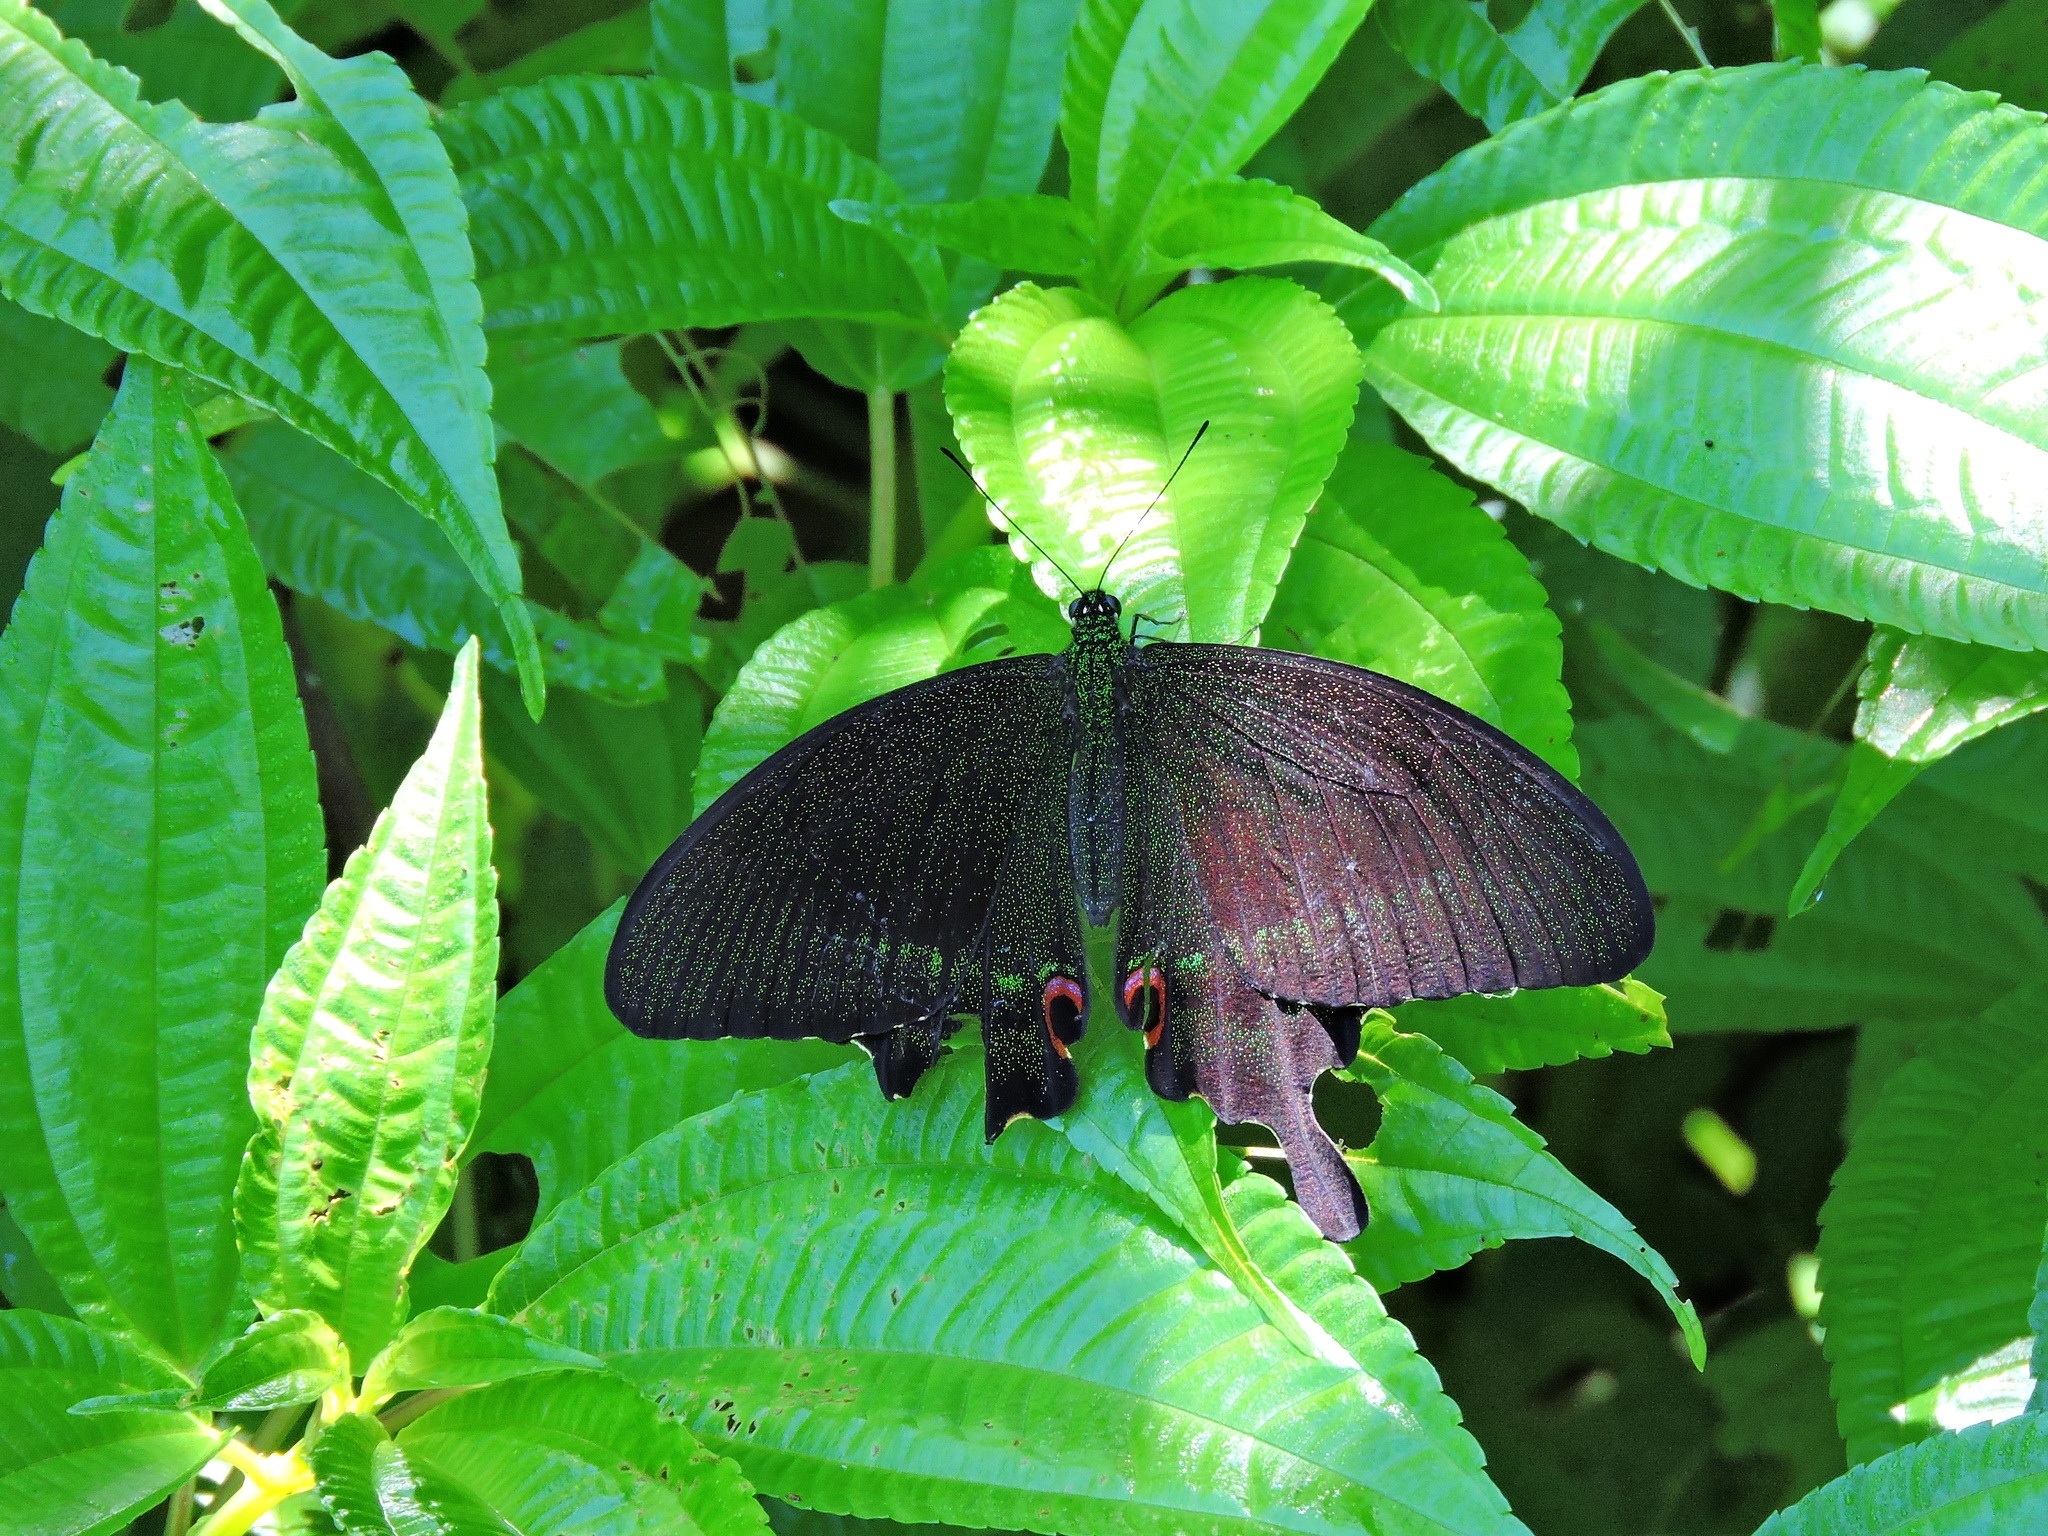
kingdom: Animalia
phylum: Arthropoda
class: Insecta
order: Lepidoptera
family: Papilionidae
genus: Papilio
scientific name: Papilio paris
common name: Paris peacock
